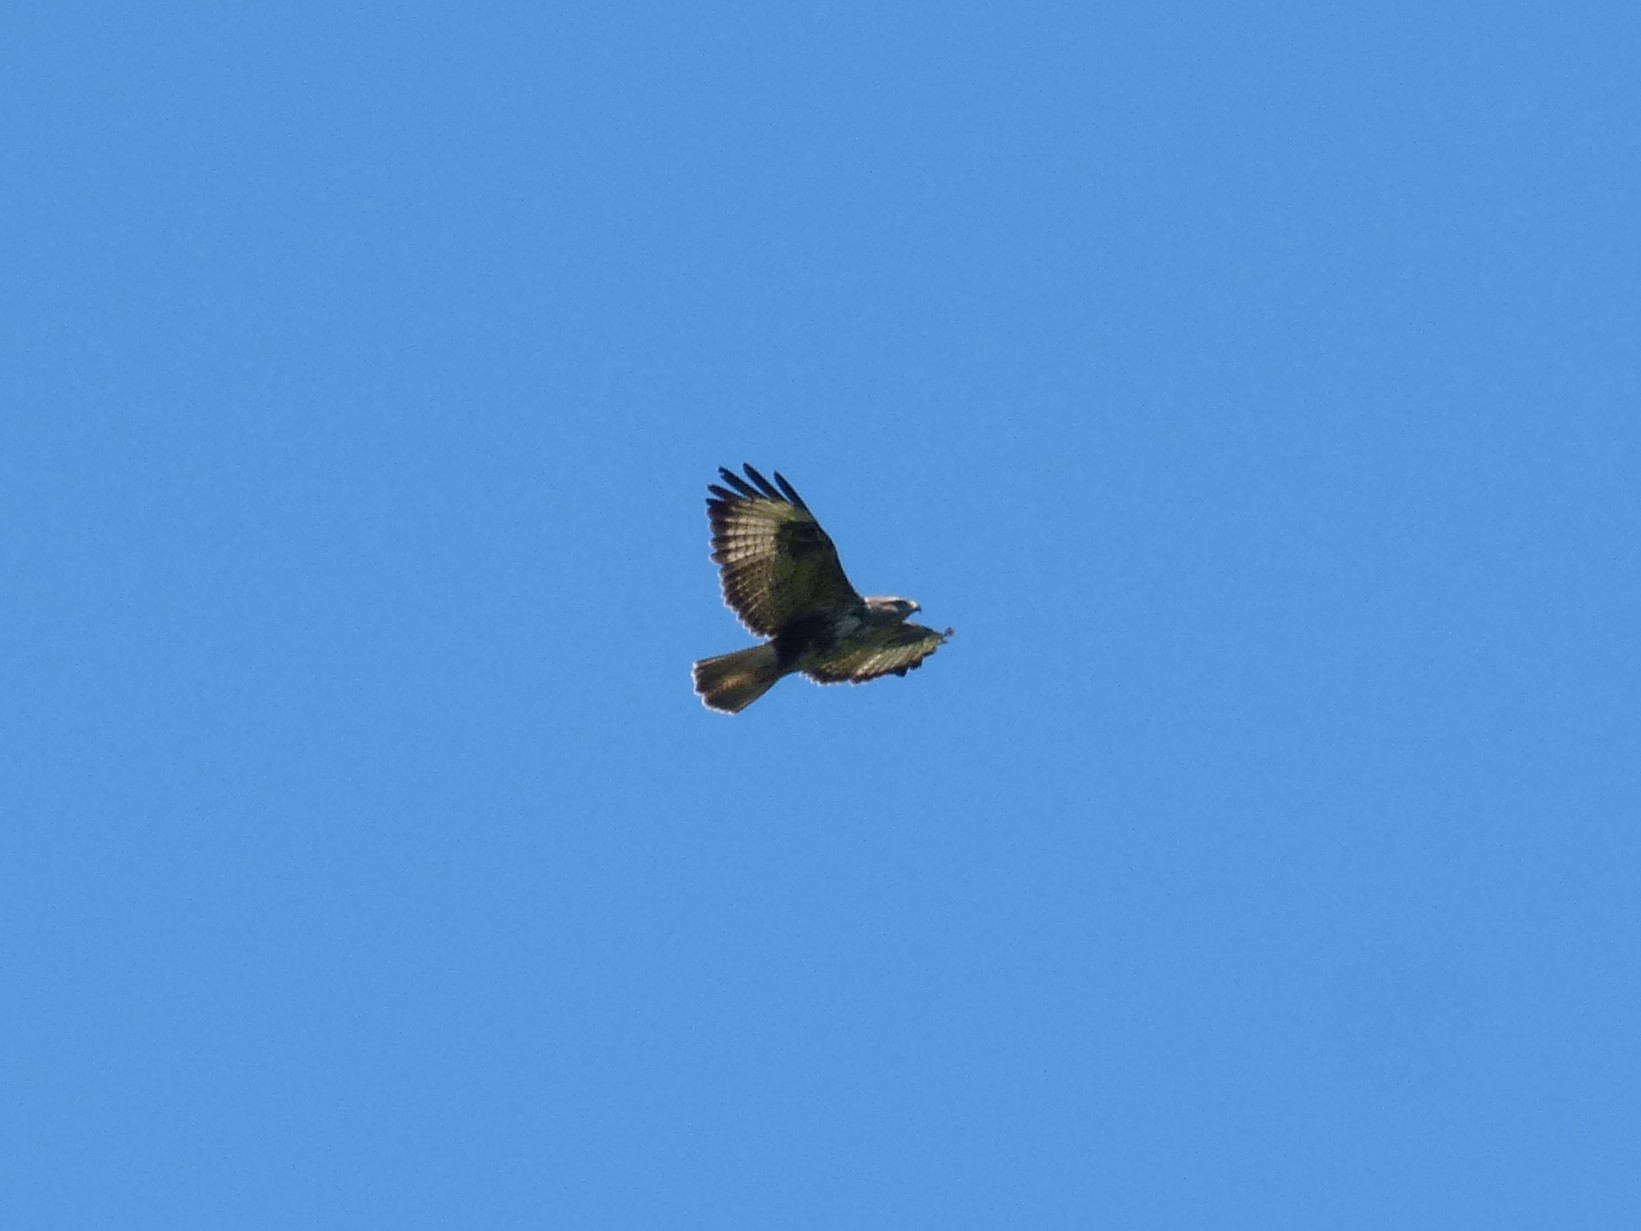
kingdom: Animalia
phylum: Chordata
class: Aves
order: Accipitriformes
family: Accipitridae
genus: Buteo
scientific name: Buteo buteo
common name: Common buzzard
